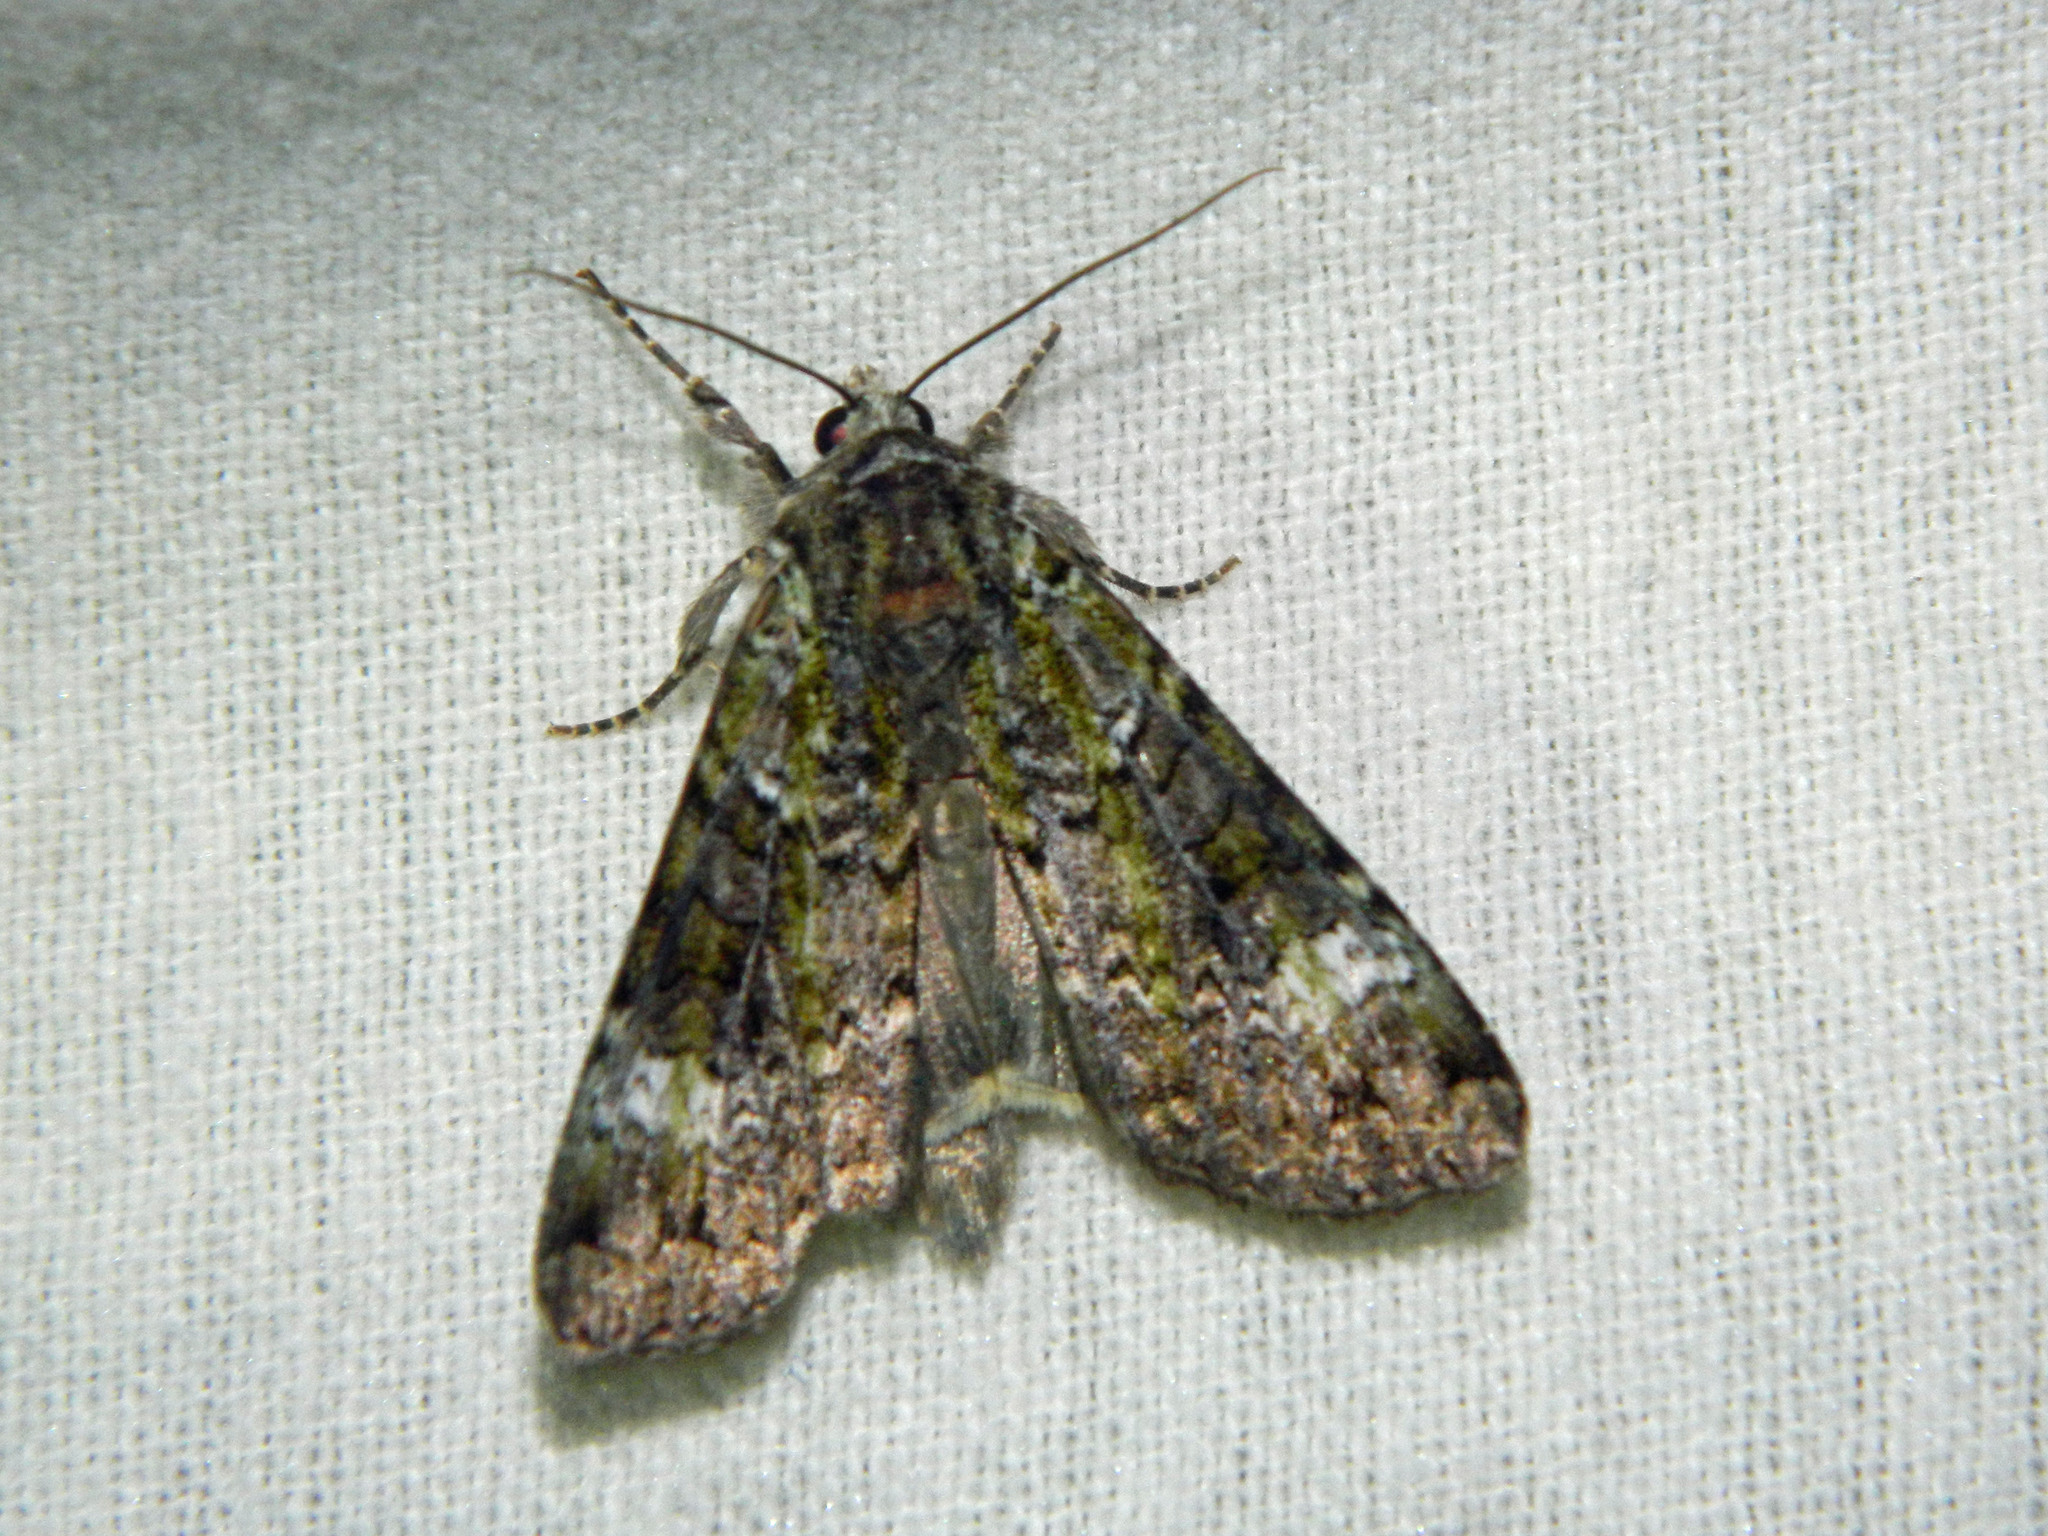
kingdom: Animalia
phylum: Arthropoda
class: Insecta
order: Lepidoptera
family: Noctuidae
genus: Anaplectoides
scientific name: Anaplectoides prasina
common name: Green arches
